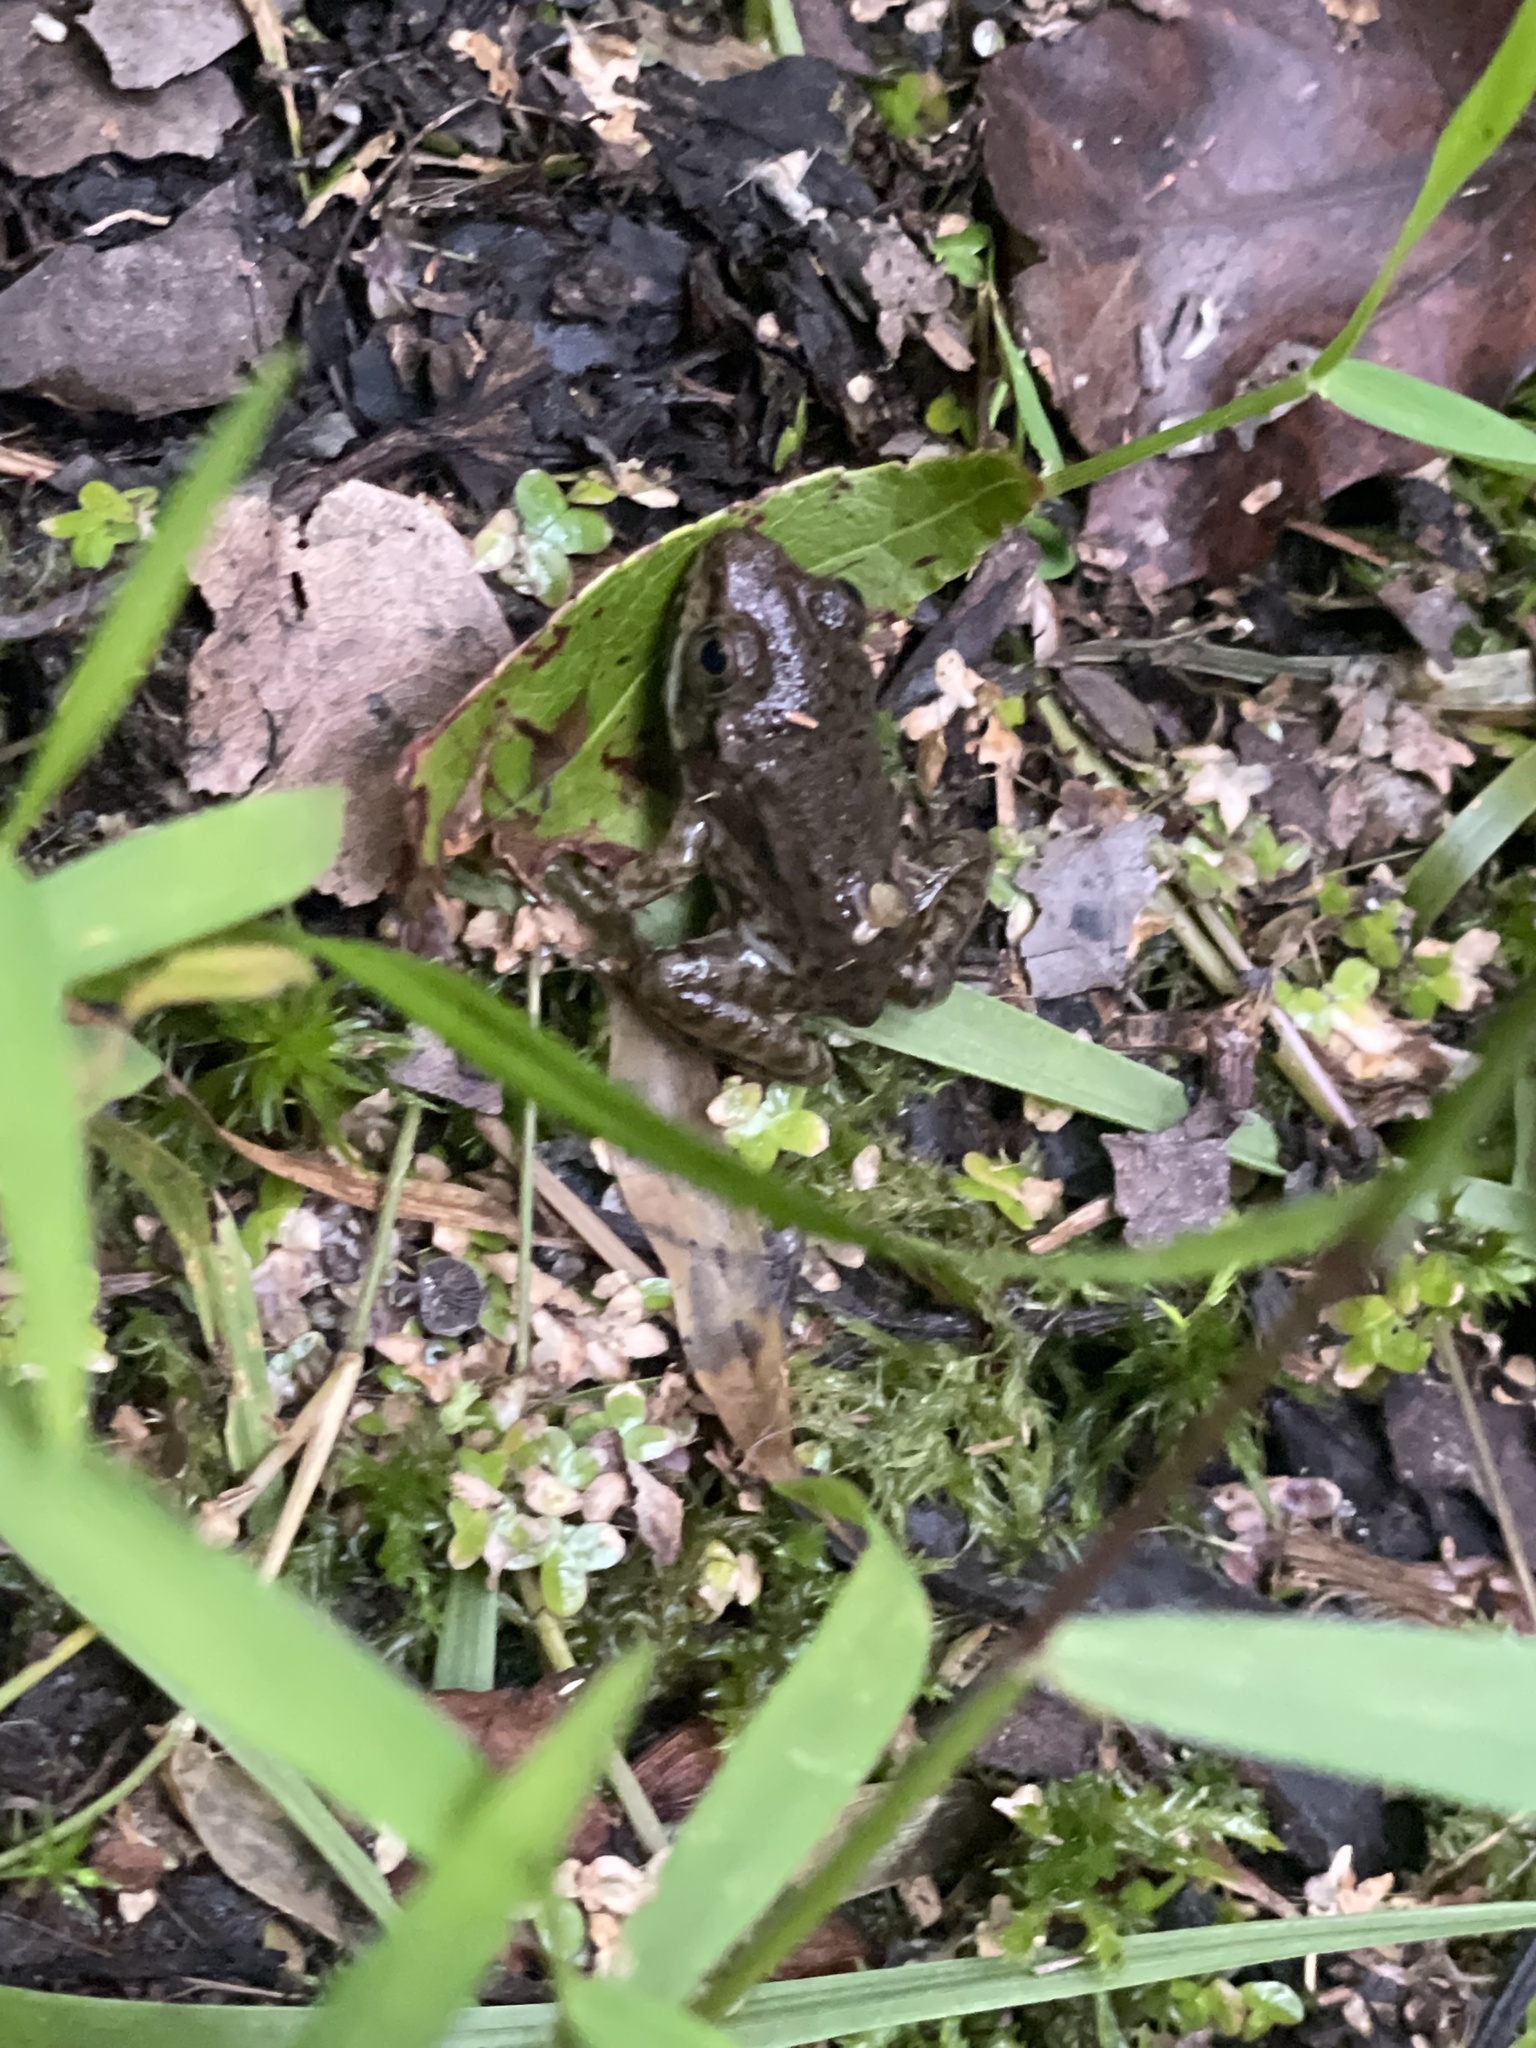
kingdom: Animalia
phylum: Chordata
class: Amphibia
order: Anura
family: Ranidae
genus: Lithobates
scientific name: Lithobates clamitans
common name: Green frog
